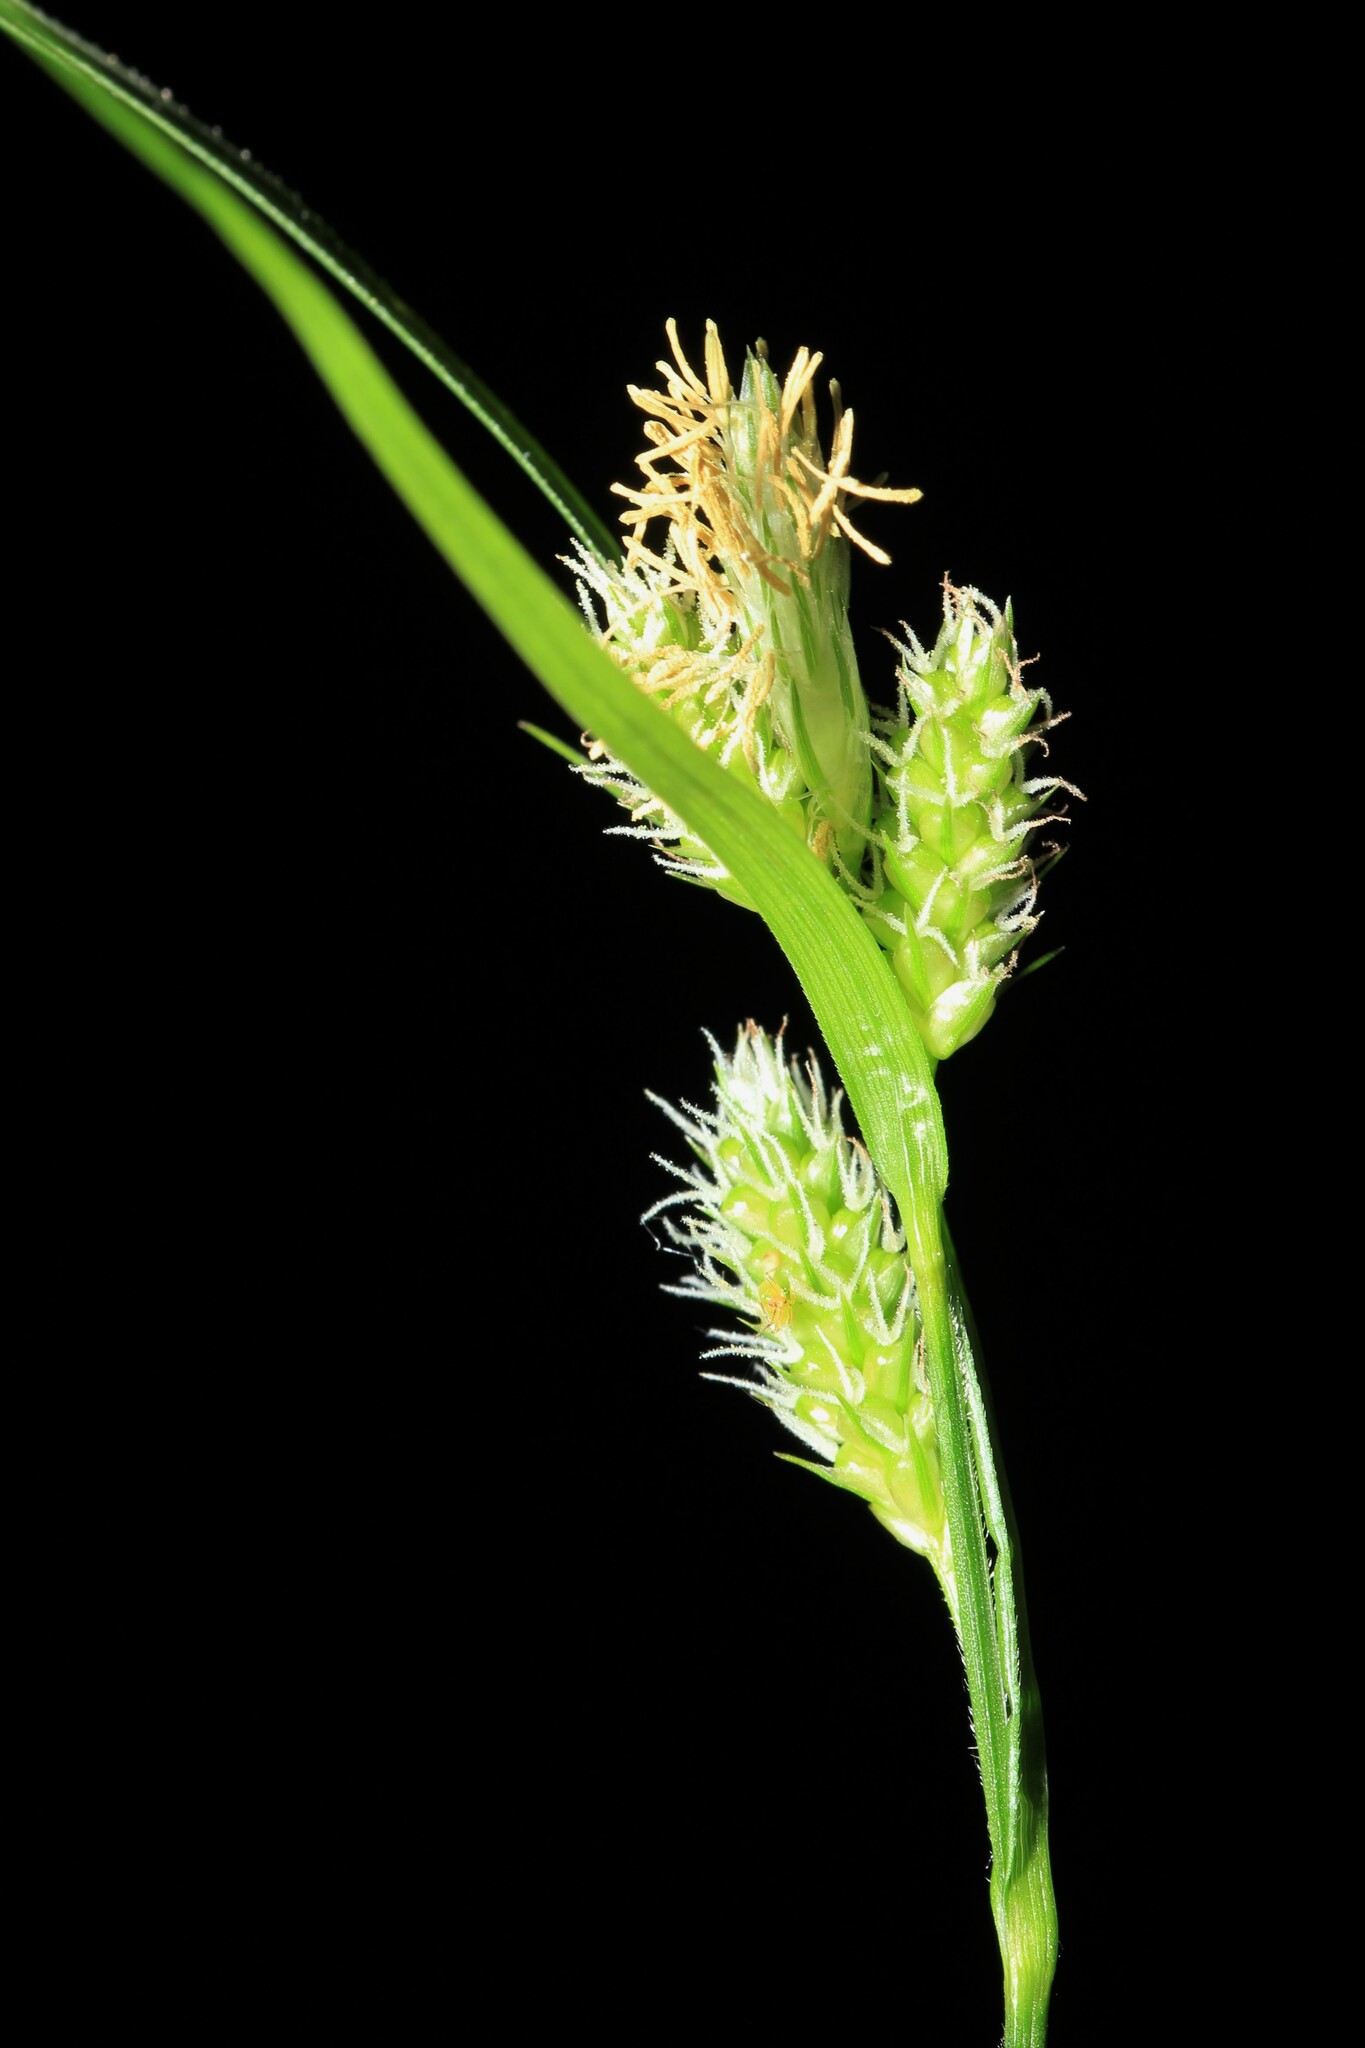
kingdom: Plantae
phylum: Tracheophyta
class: Liliopsida
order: Poales
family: Cyperaceae
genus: Carex
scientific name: Carex pallescens
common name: Pale sedge
